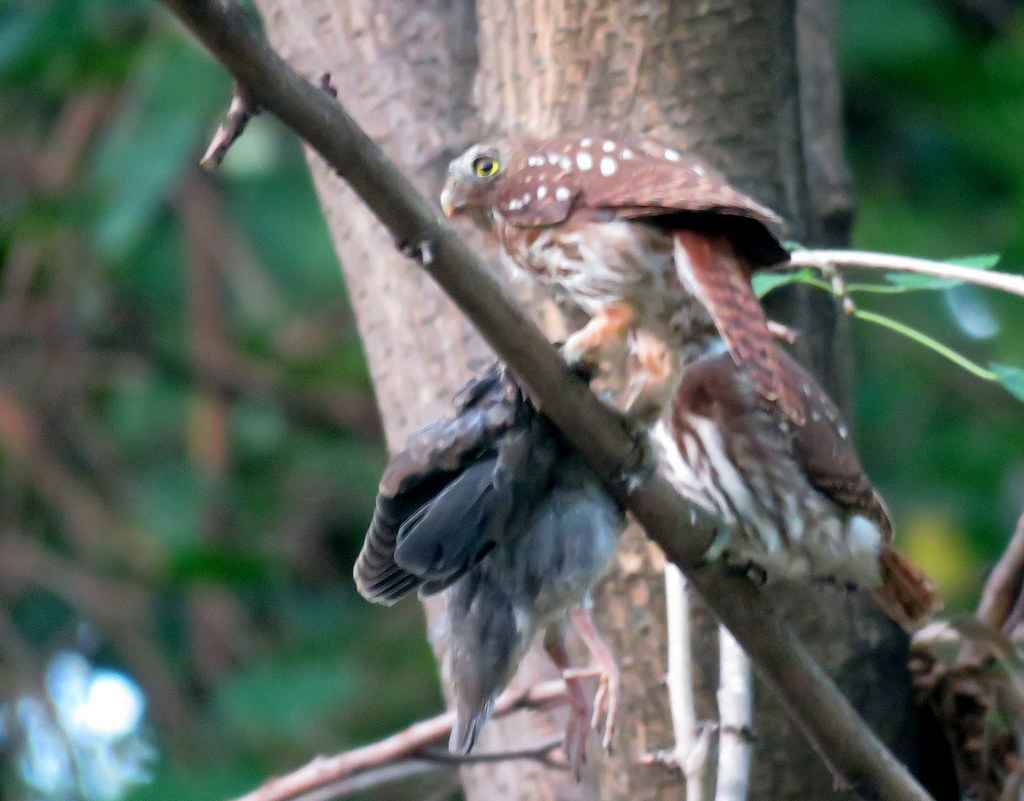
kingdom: Animalia
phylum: Chordata
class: Aves
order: Strigiformes
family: Strigidae
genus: Glaucidium
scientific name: Glaucidium brasilianum
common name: Ferruginous pygmy-owl
